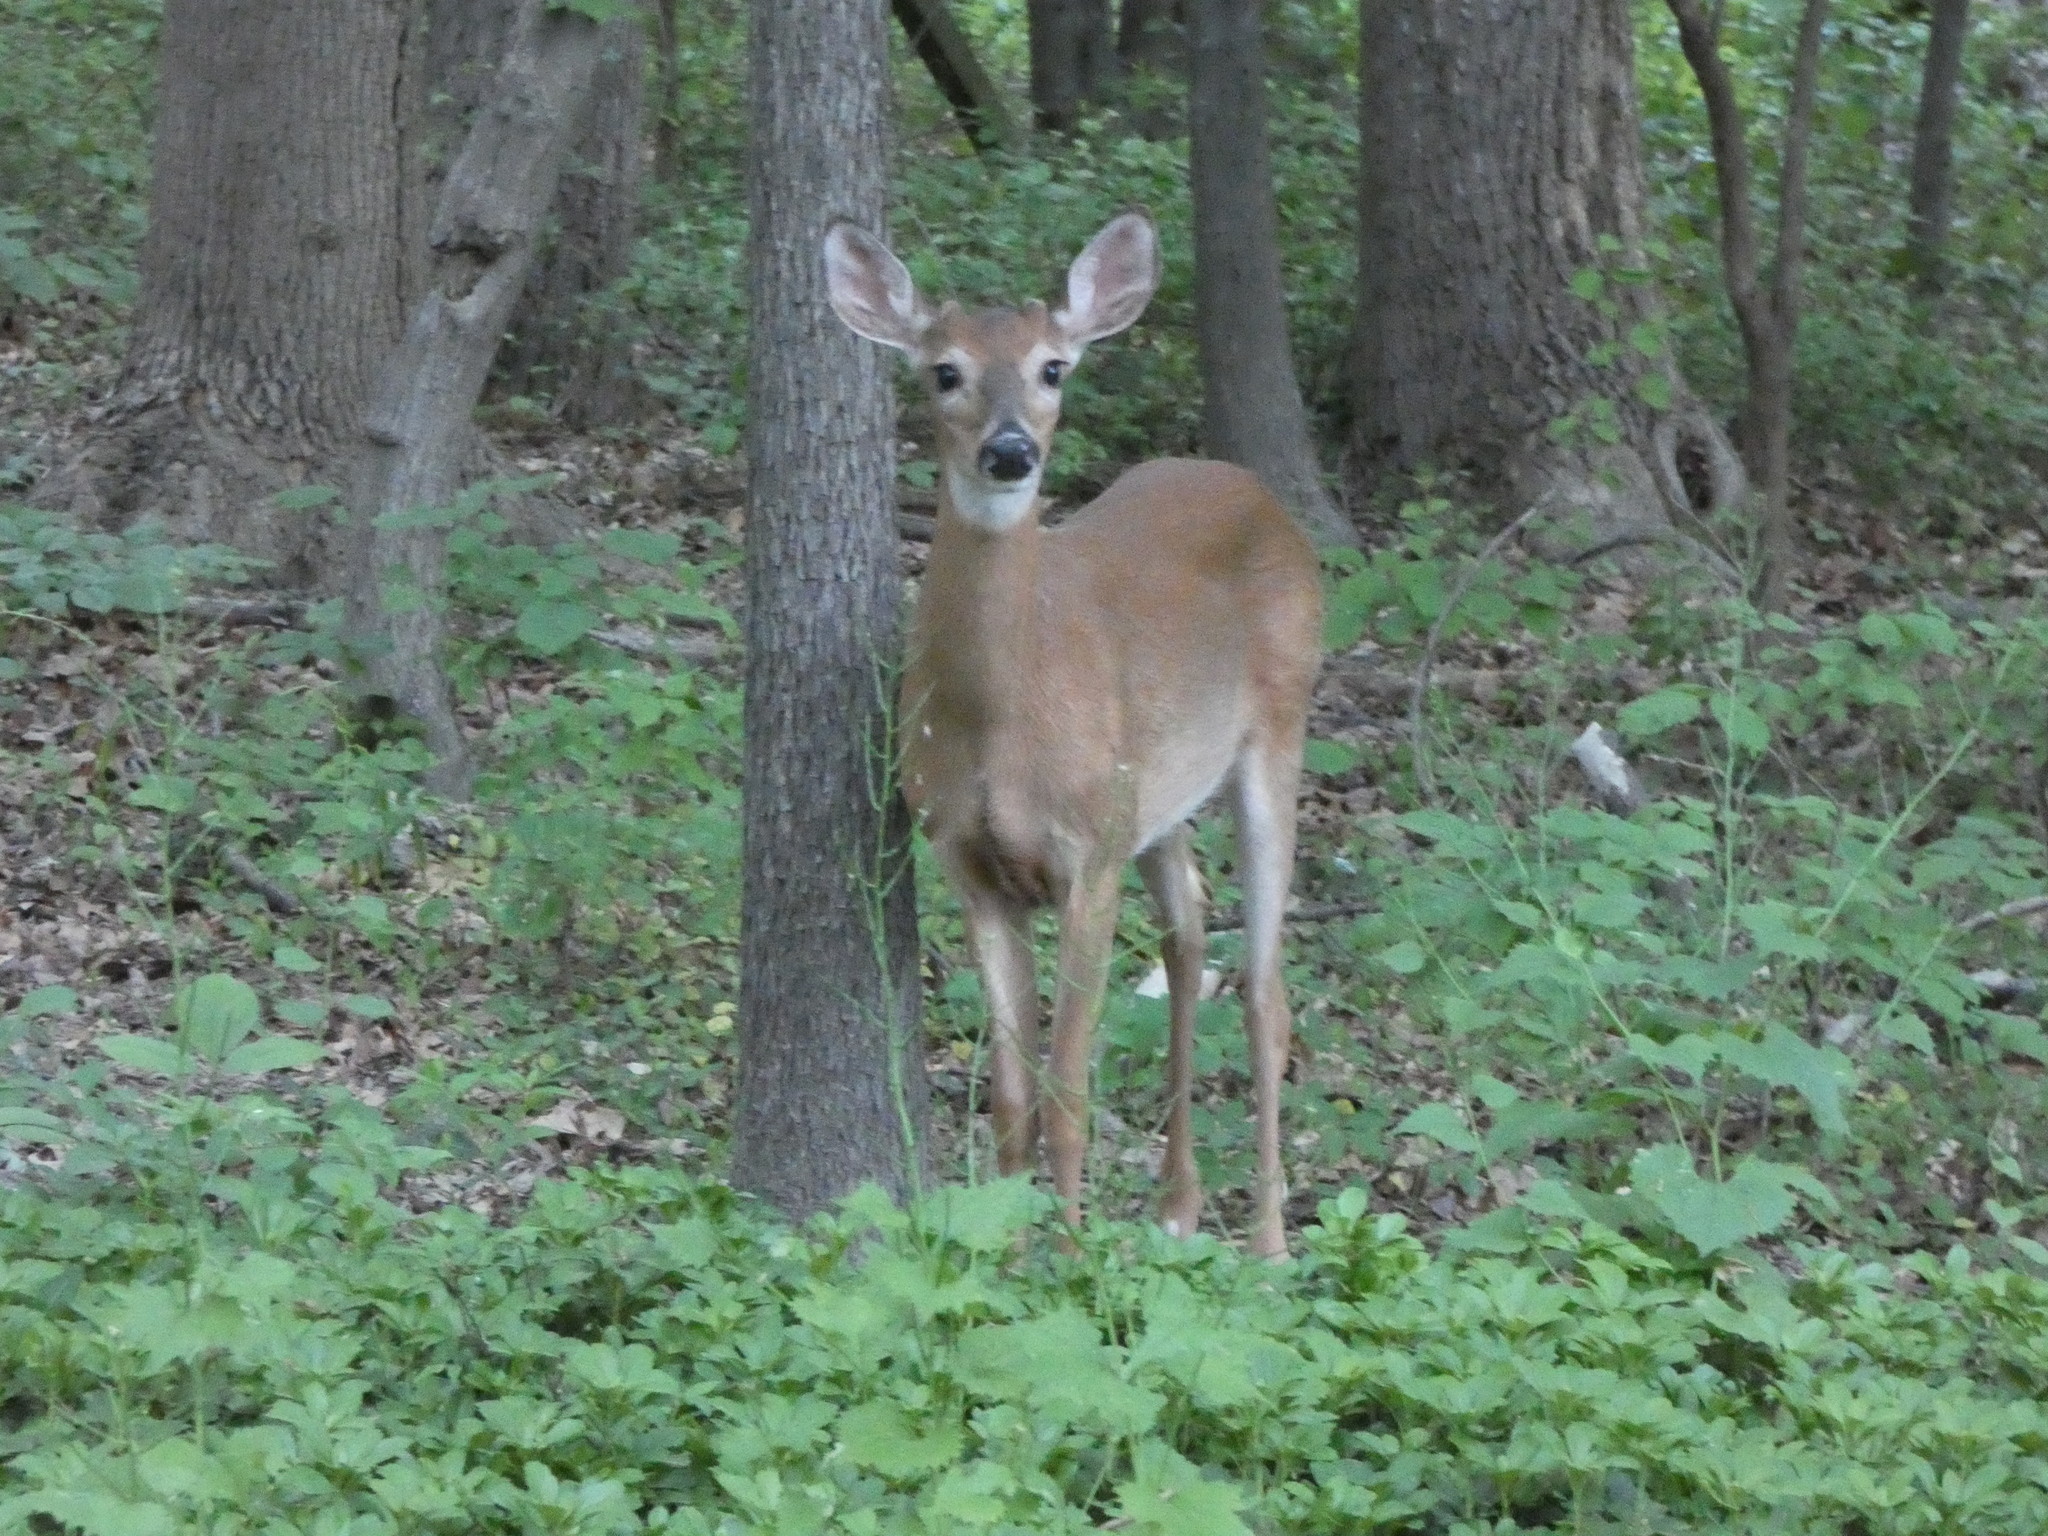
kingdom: Animalia
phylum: Chordata
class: Mammalia
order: Artiodactyla
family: Cervidae
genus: Odocoileus
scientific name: Odocoileus virginianus
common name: White-tailed deer
